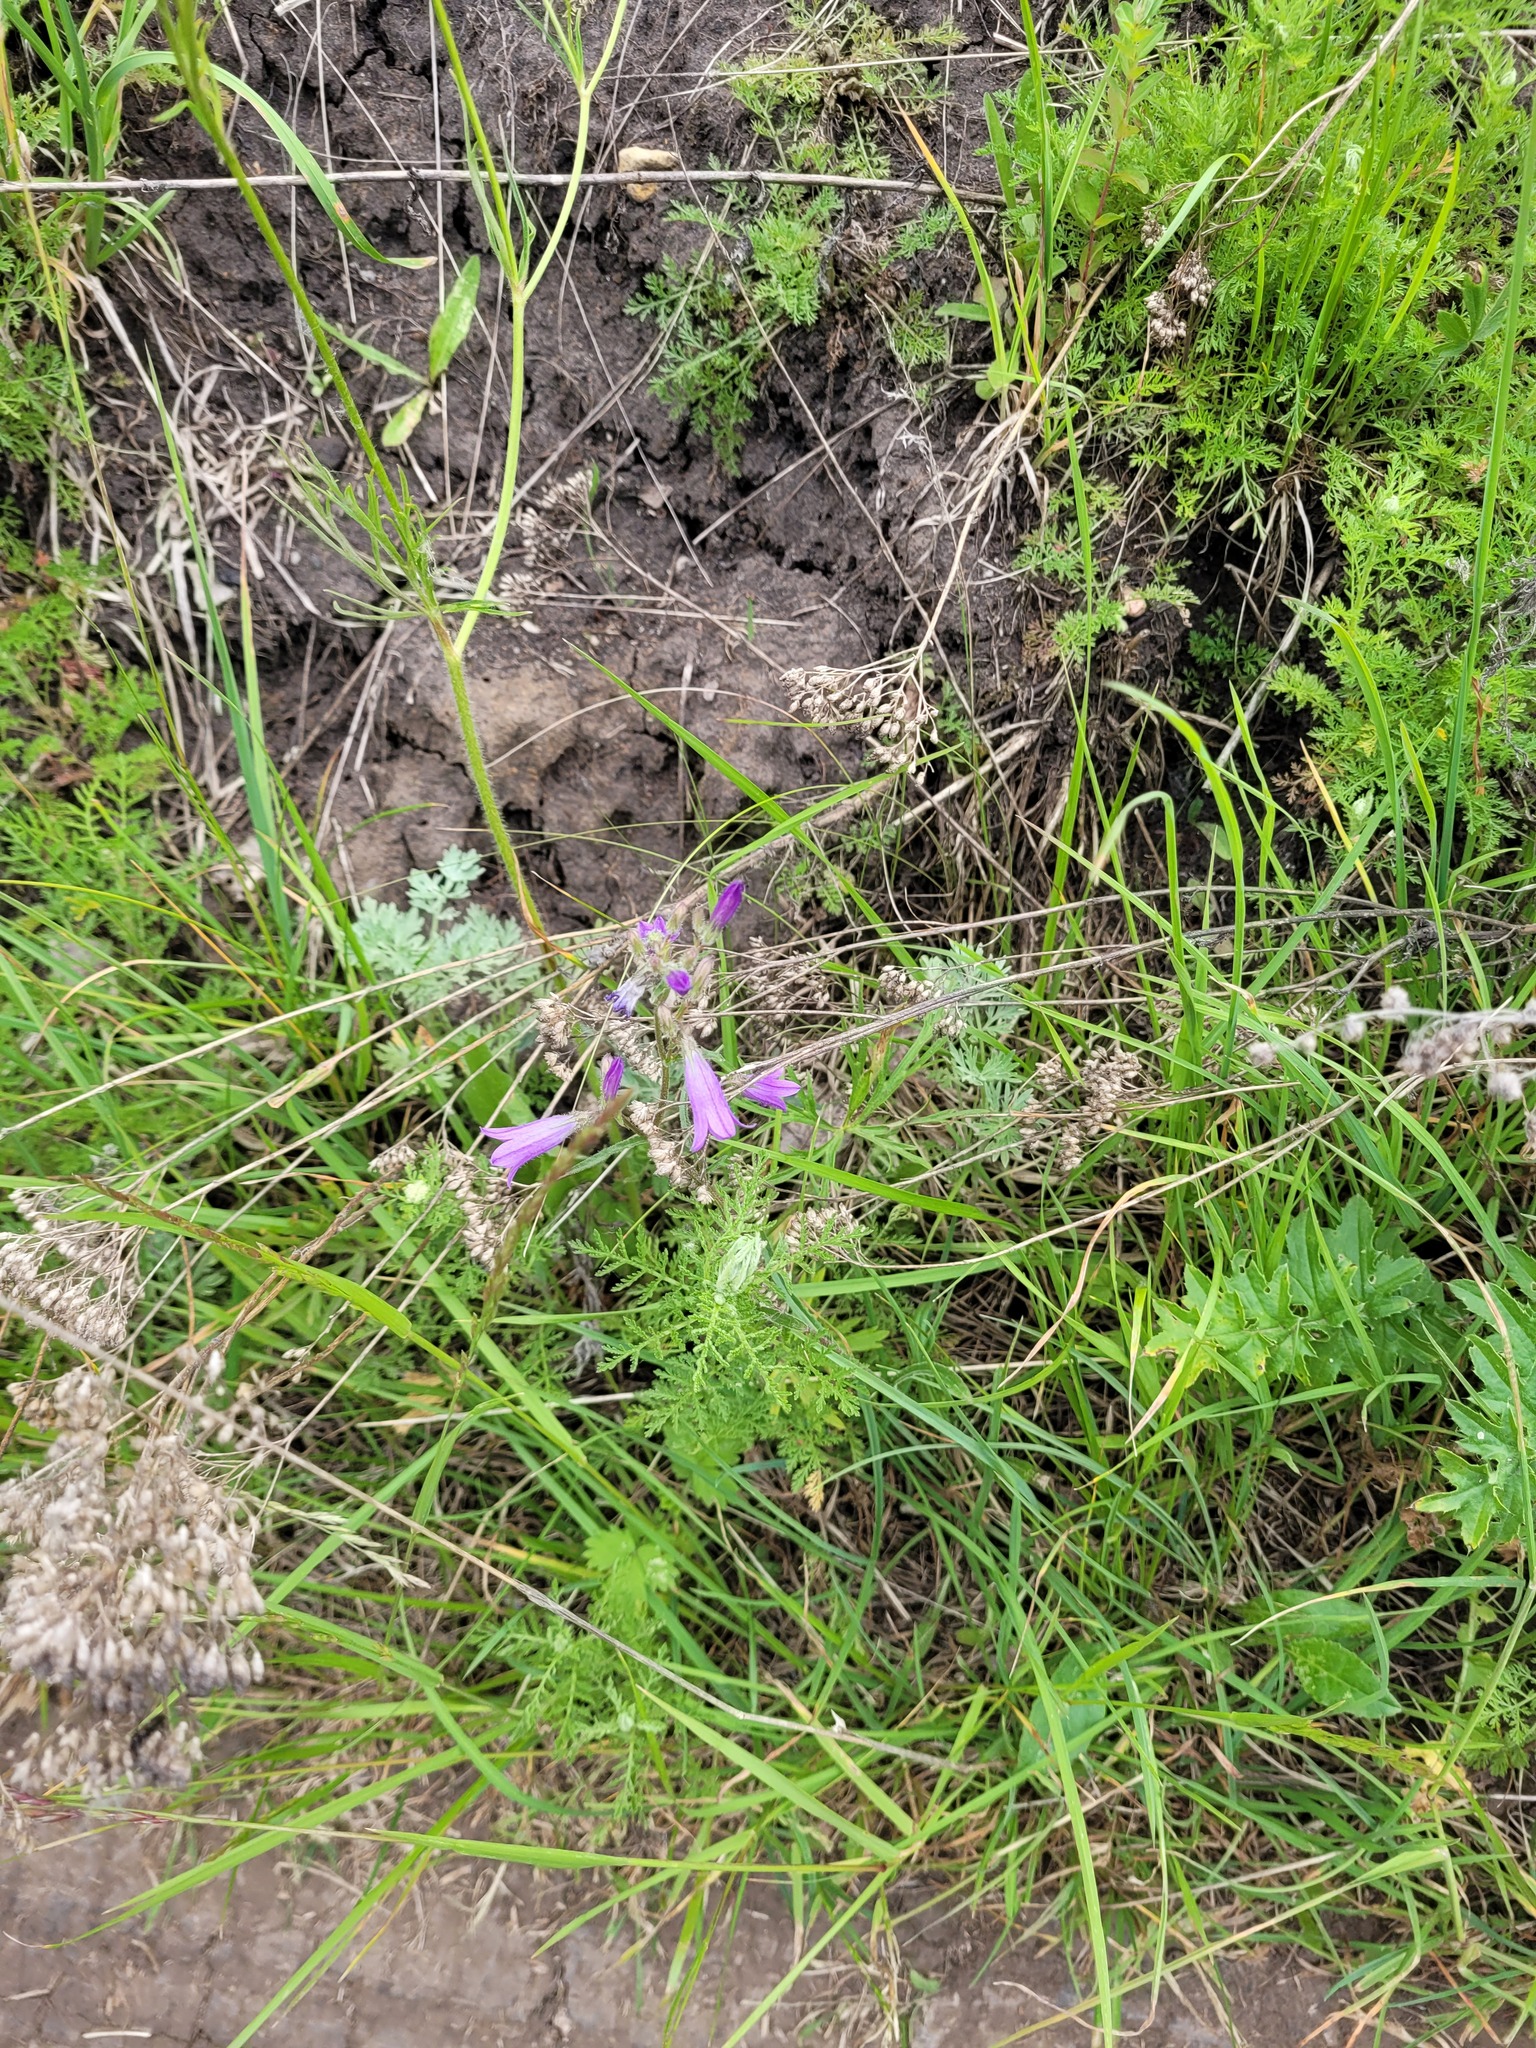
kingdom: Plantae
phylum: Tracheophyta
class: Magnoliopsida
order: Asterales
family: Campanulaceae
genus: Campanula
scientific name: Campanula sibirica
